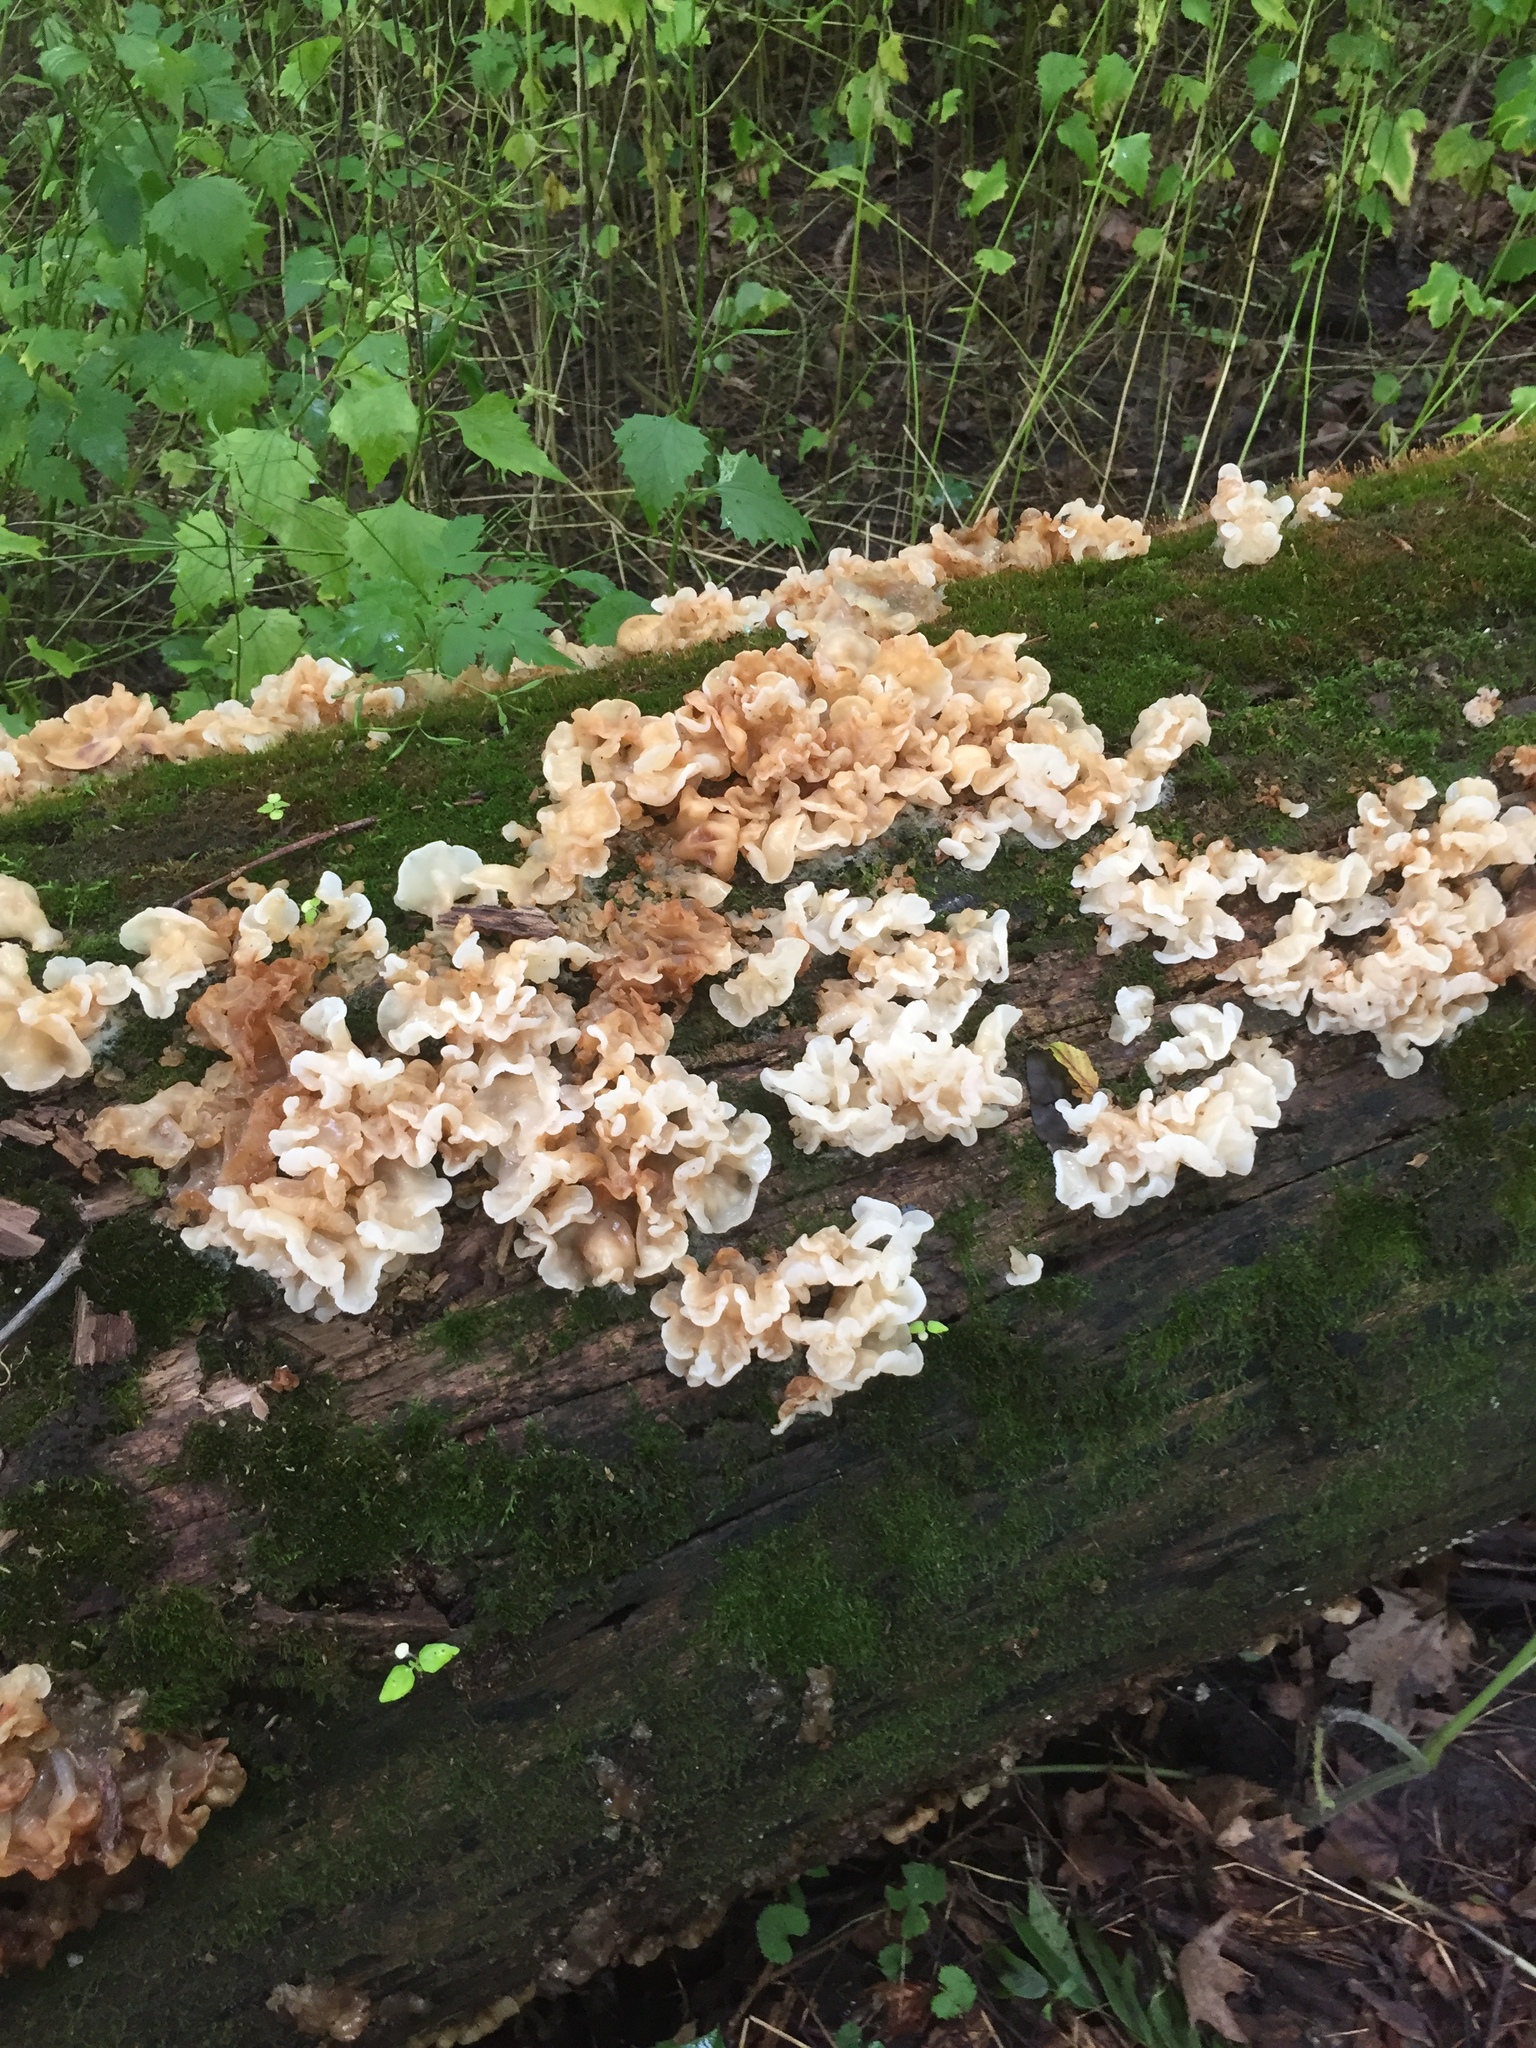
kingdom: Fungi
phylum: Basidiomycota
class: Agaricomycetes
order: Auriculariales
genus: Ductifera
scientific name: Ductifera pululahuana
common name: White jelly fungus
